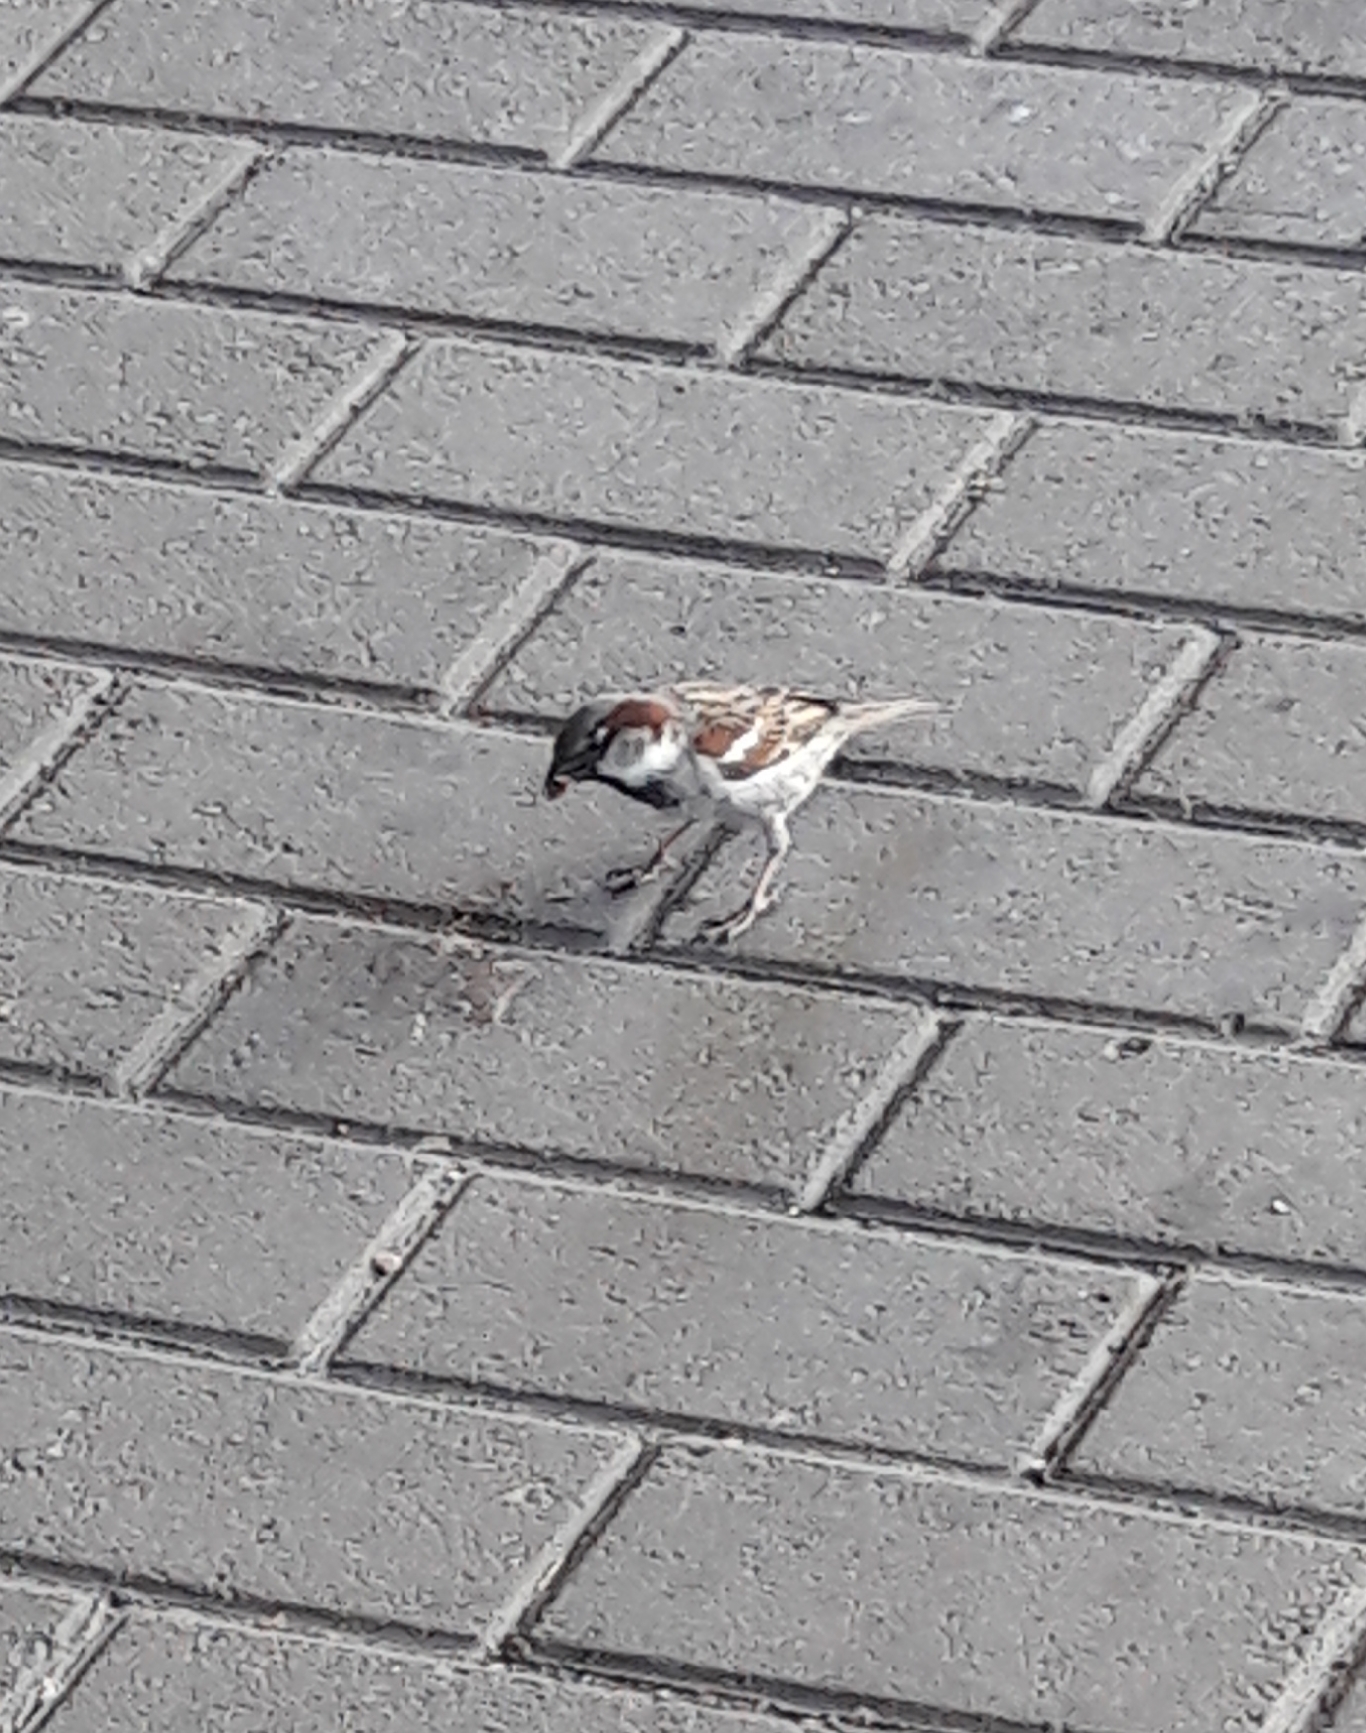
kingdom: Animalia
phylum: Chordata
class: Aves
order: Passeriformes
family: Passeridae
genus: Passer
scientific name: Passer domesticus
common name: House sparrow
